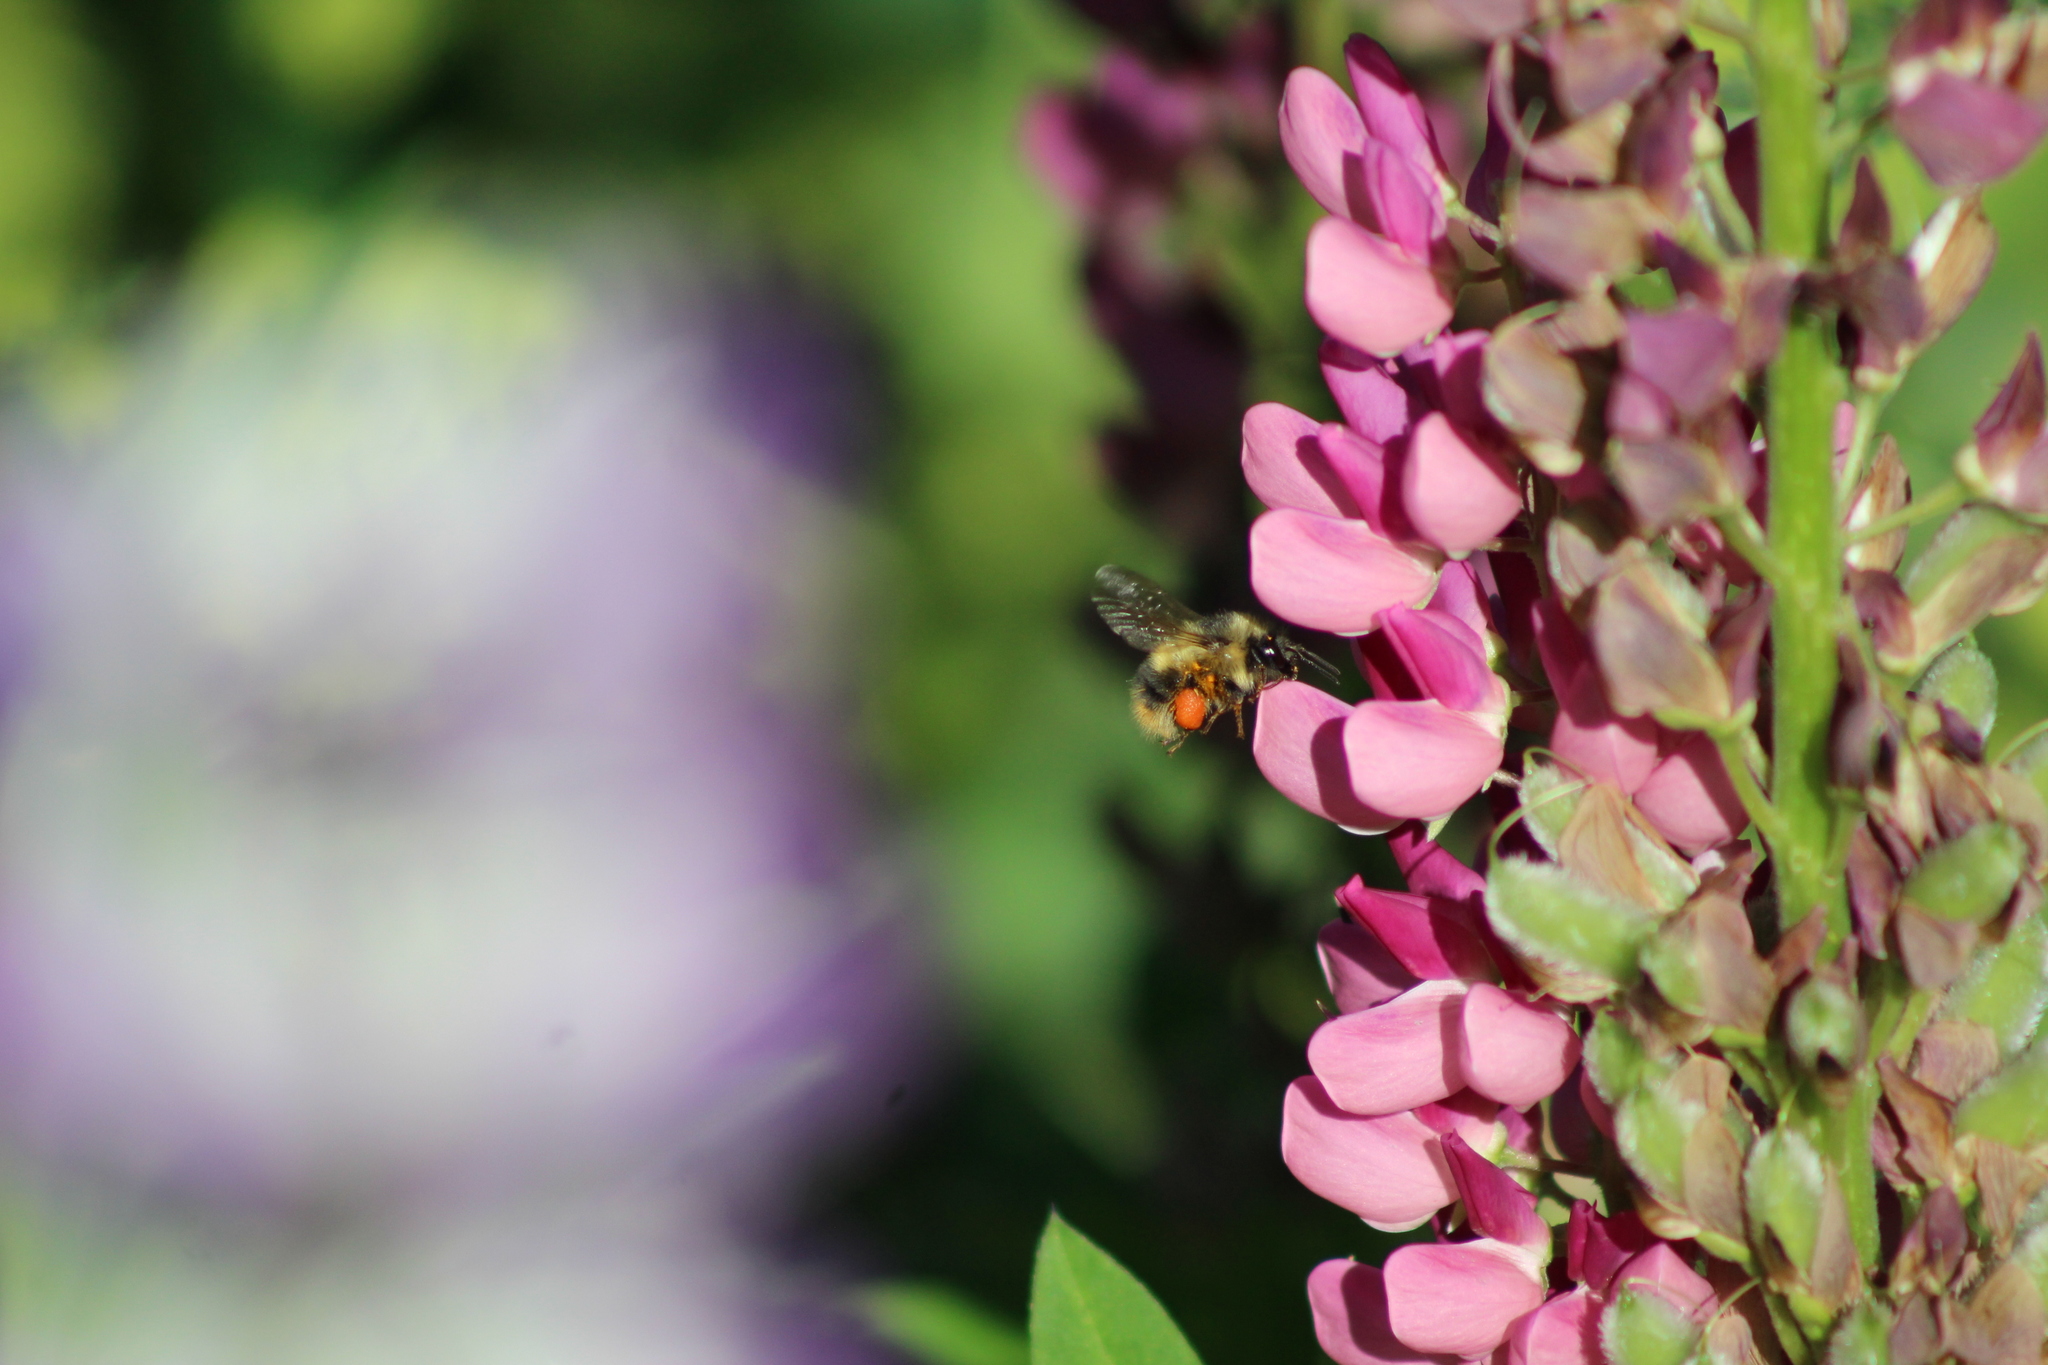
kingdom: Animalia
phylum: Arthropoda
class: Insecta
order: Hymenoptera
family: Apidae
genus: Bombus
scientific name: Bombus mixtus
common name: Fuzzy-horned bumble bee
